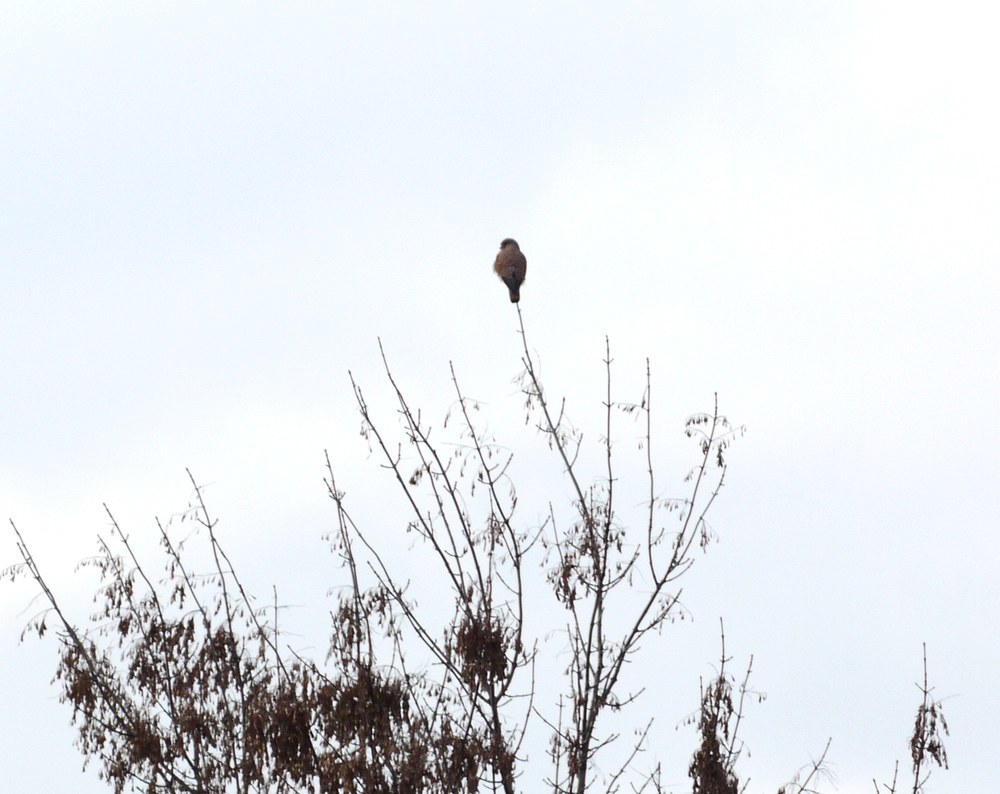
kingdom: Animalia
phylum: Chordata
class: Aves
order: Falconiformes
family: Falconidae
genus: Falco
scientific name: Falco tinnunculus
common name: Common kestrel
